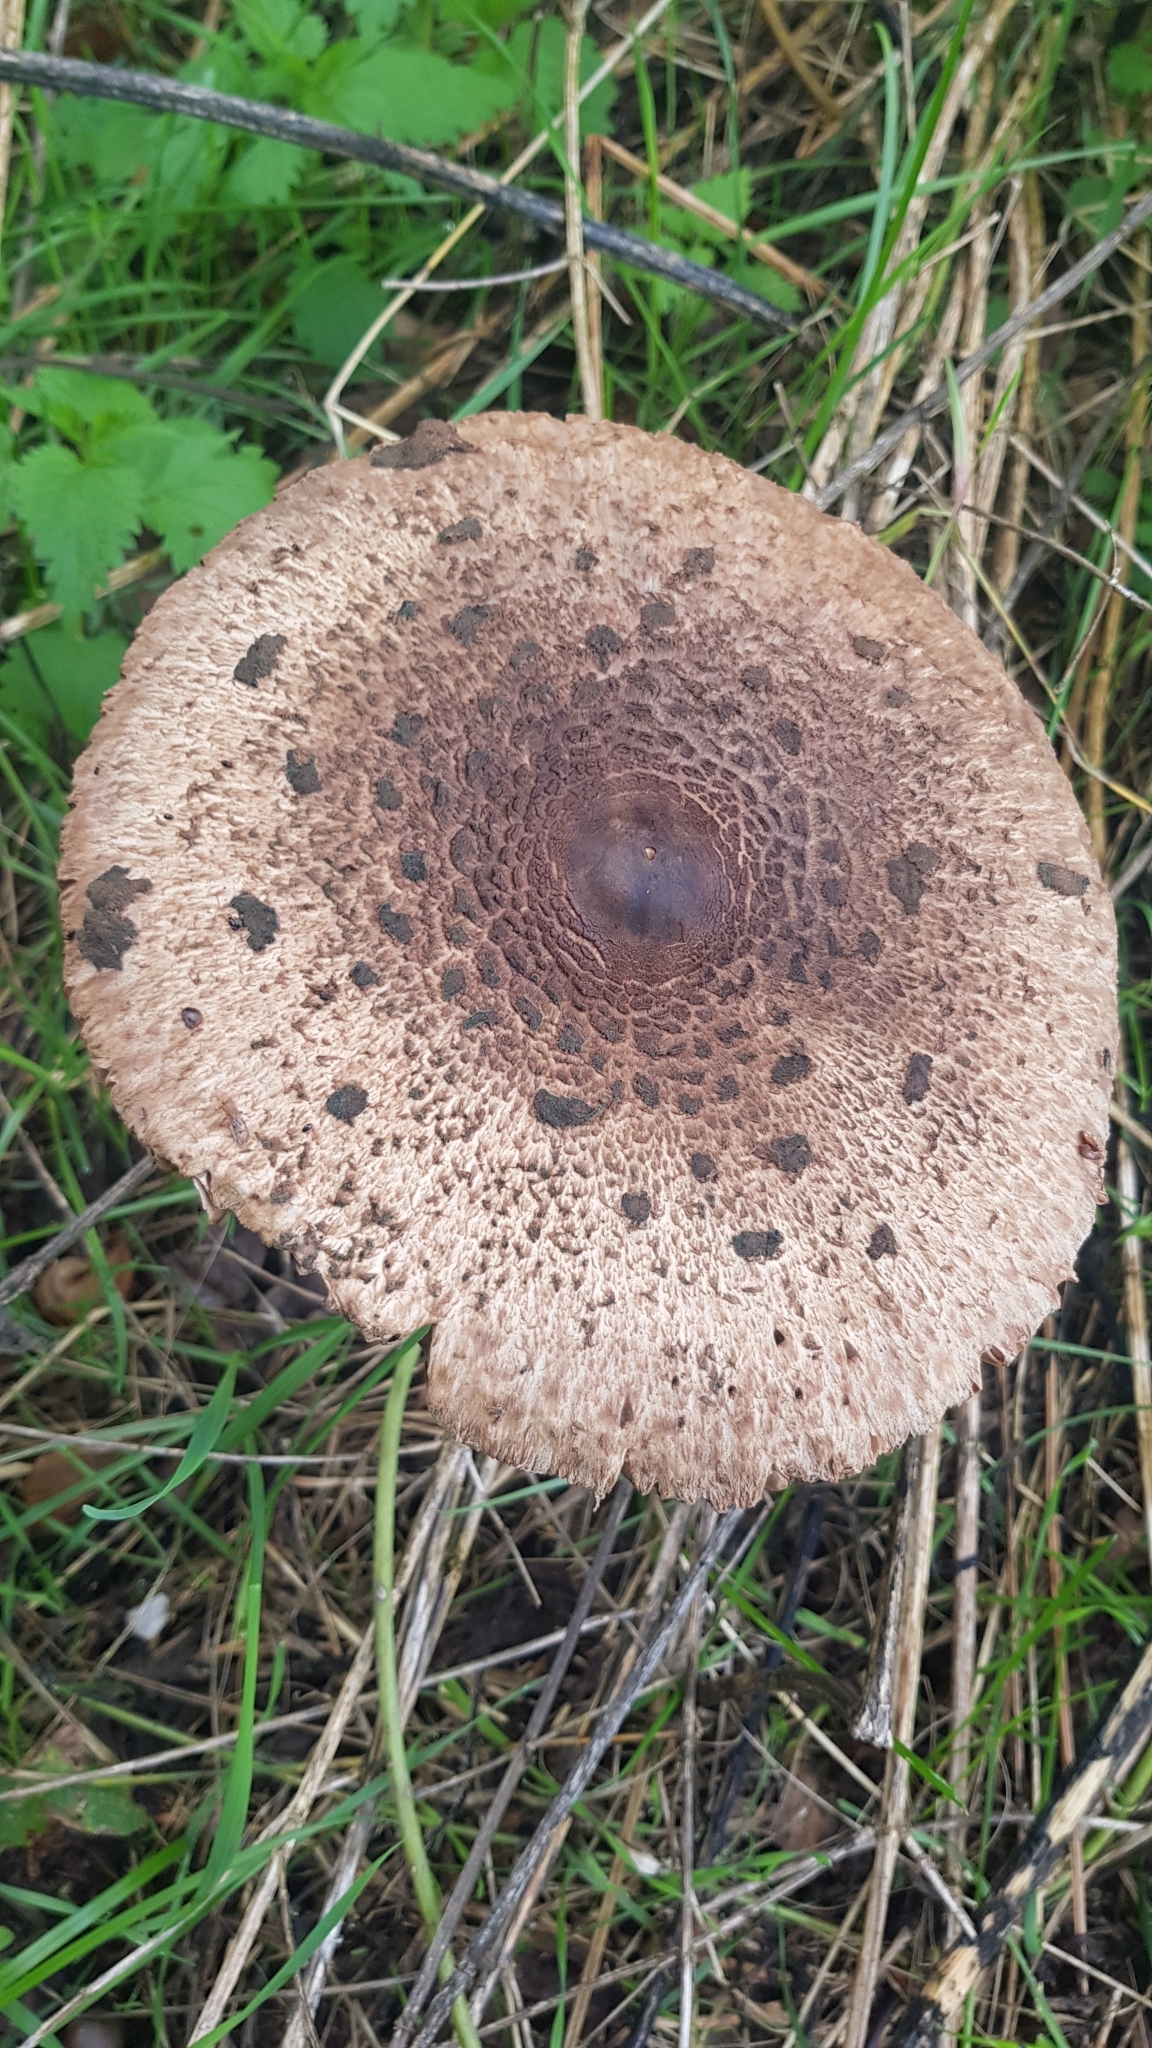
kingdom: Fungi
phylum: Basidiomycota
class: Agaricomycetes
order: Agaricales
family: Agaricaceae
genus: Macrolepiota
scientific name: Macrolepiota procera
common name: Parasol
